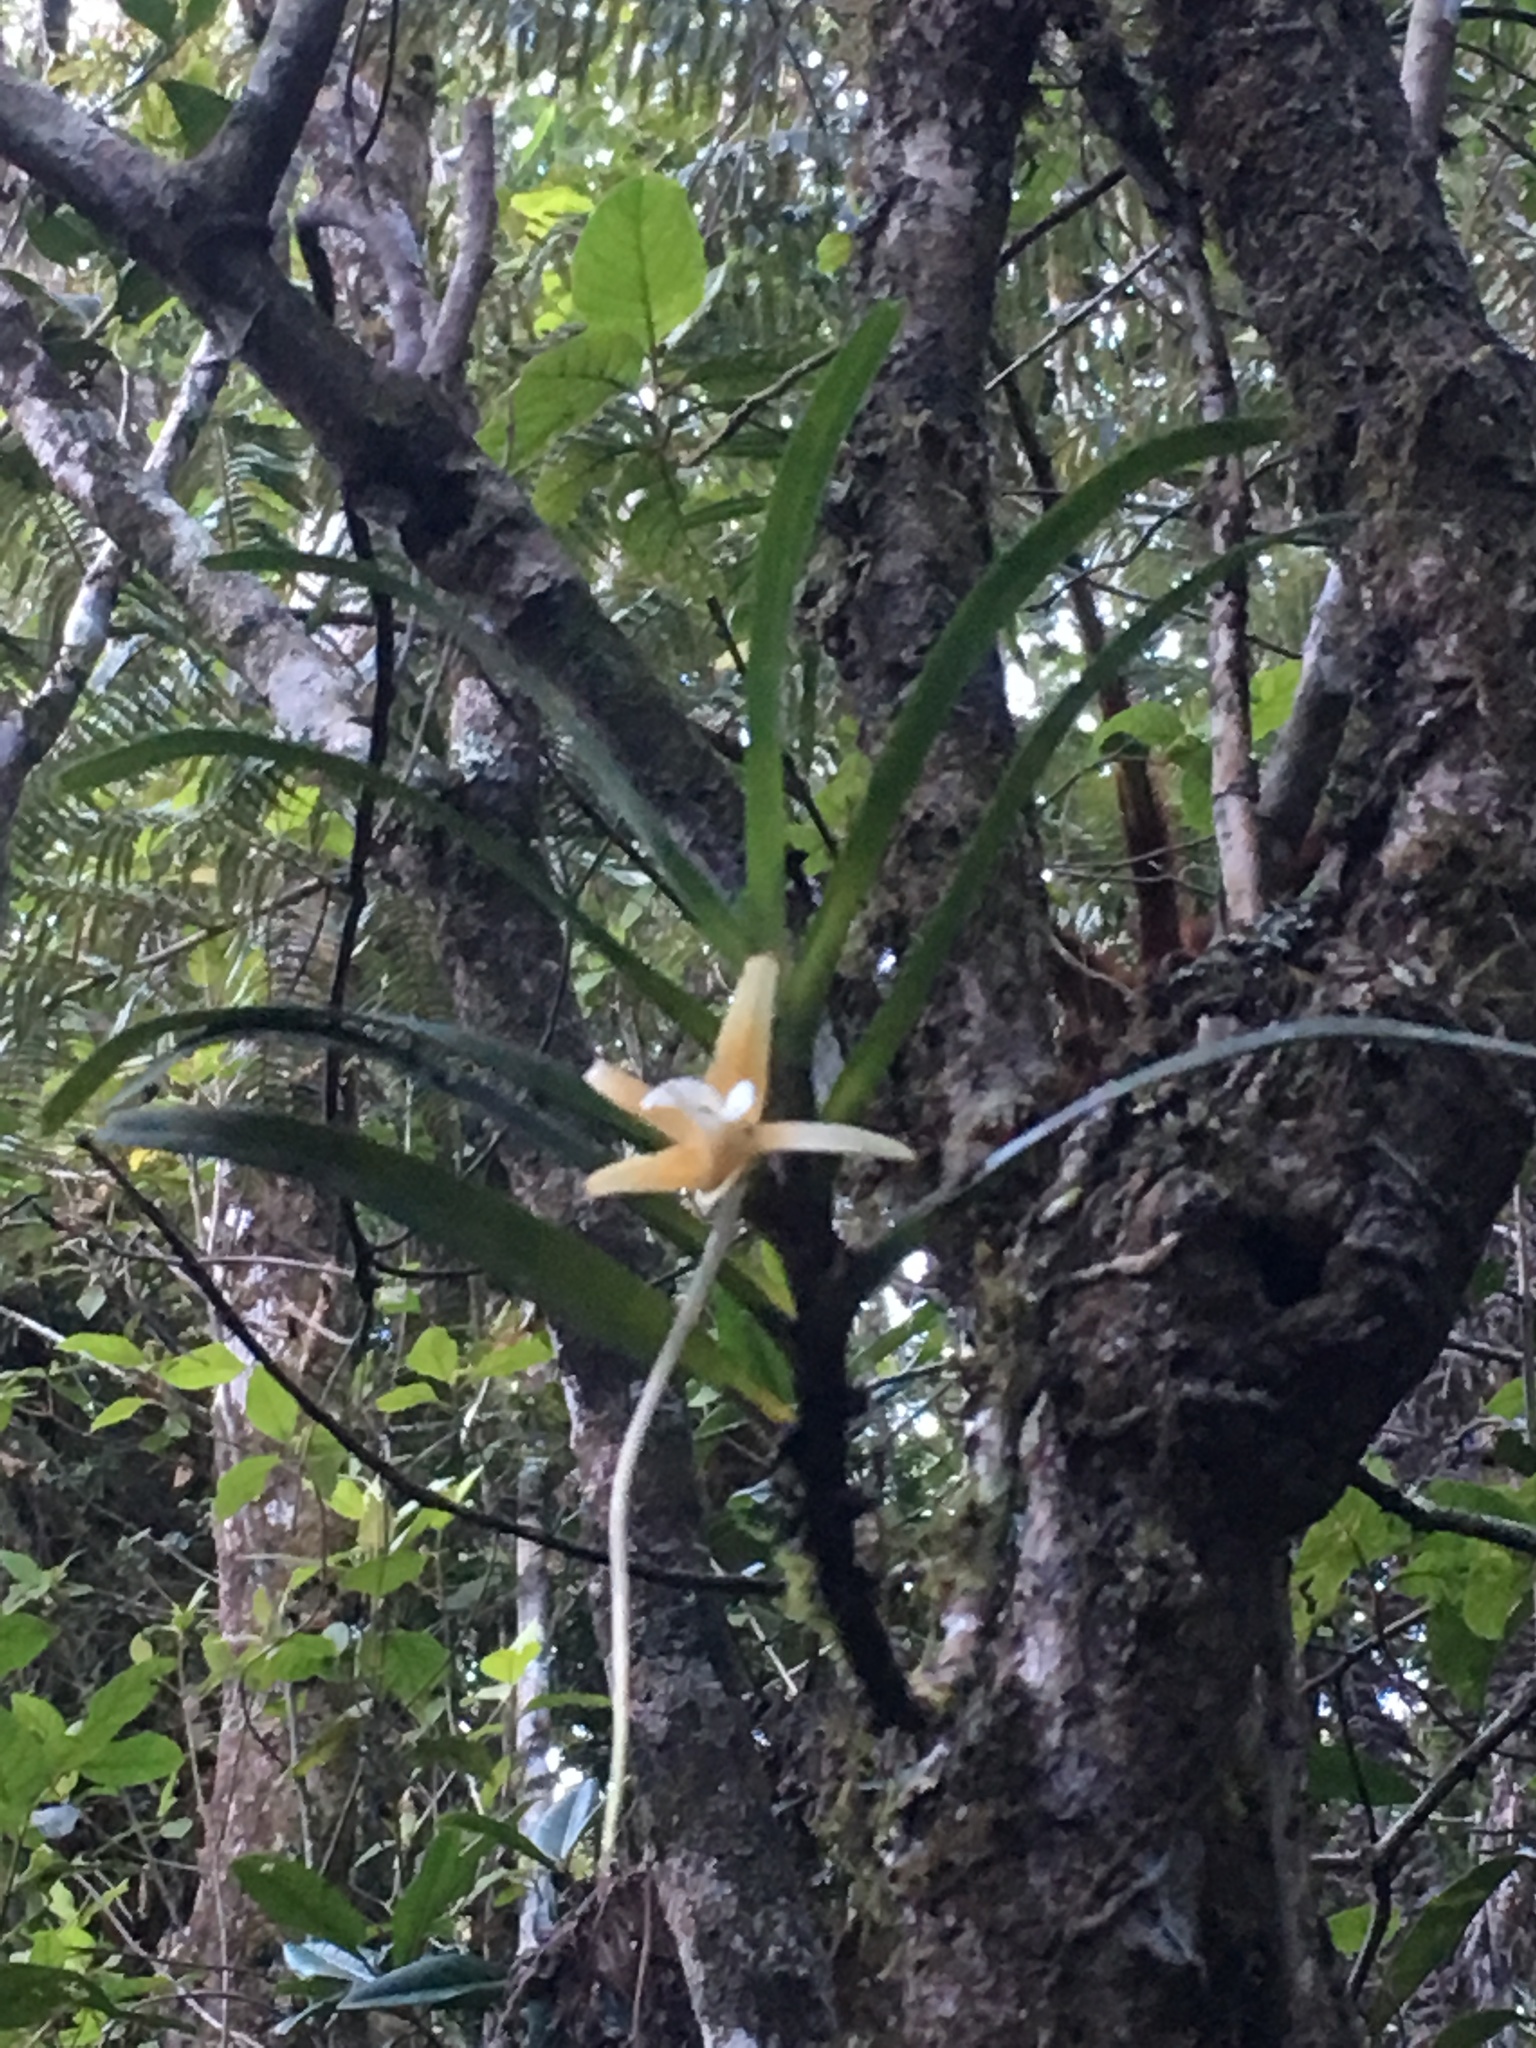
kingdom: Plantae
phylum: Tracheophyta
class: Liliopsida
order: Asparagales
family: Orchidaceae
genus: Angraecum
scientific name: Angraecum obesum
